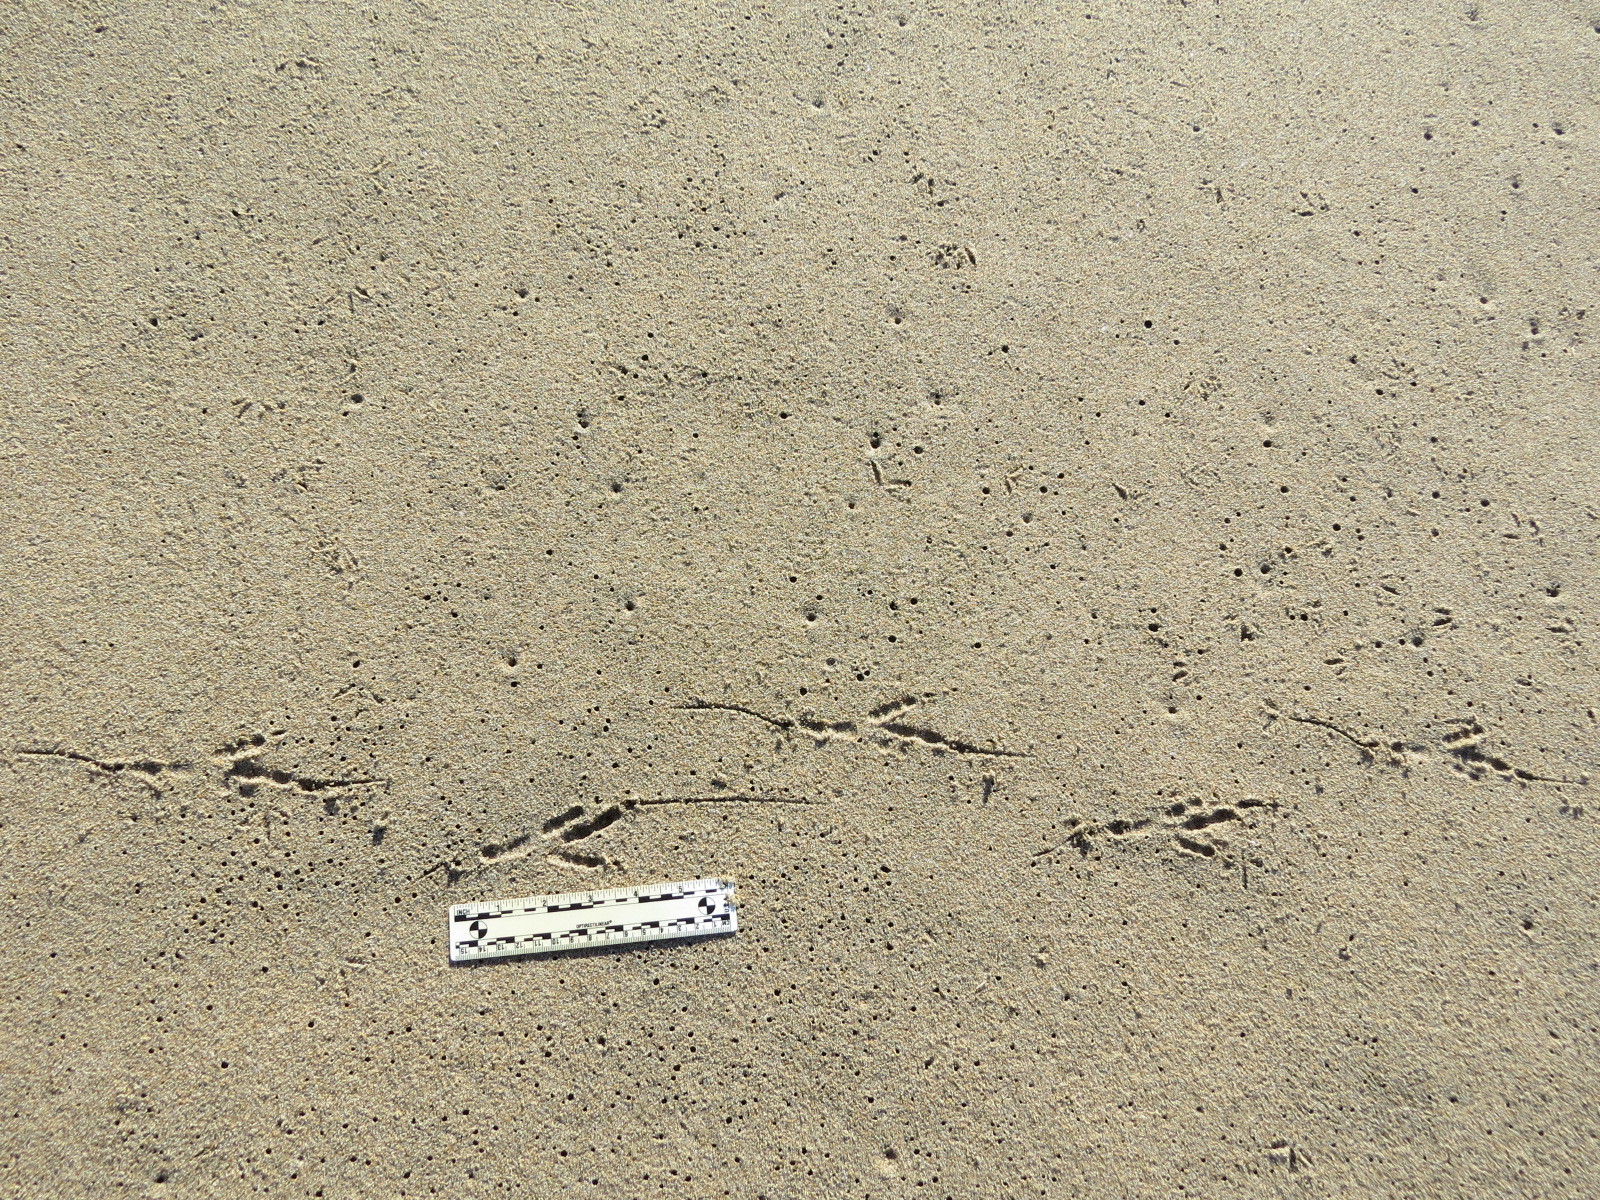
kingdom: Animalia
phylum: Chordata
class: Aves
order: Passeriformes
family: Corvidae
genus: Corvus
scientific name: Corvus corax
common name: Common raven
